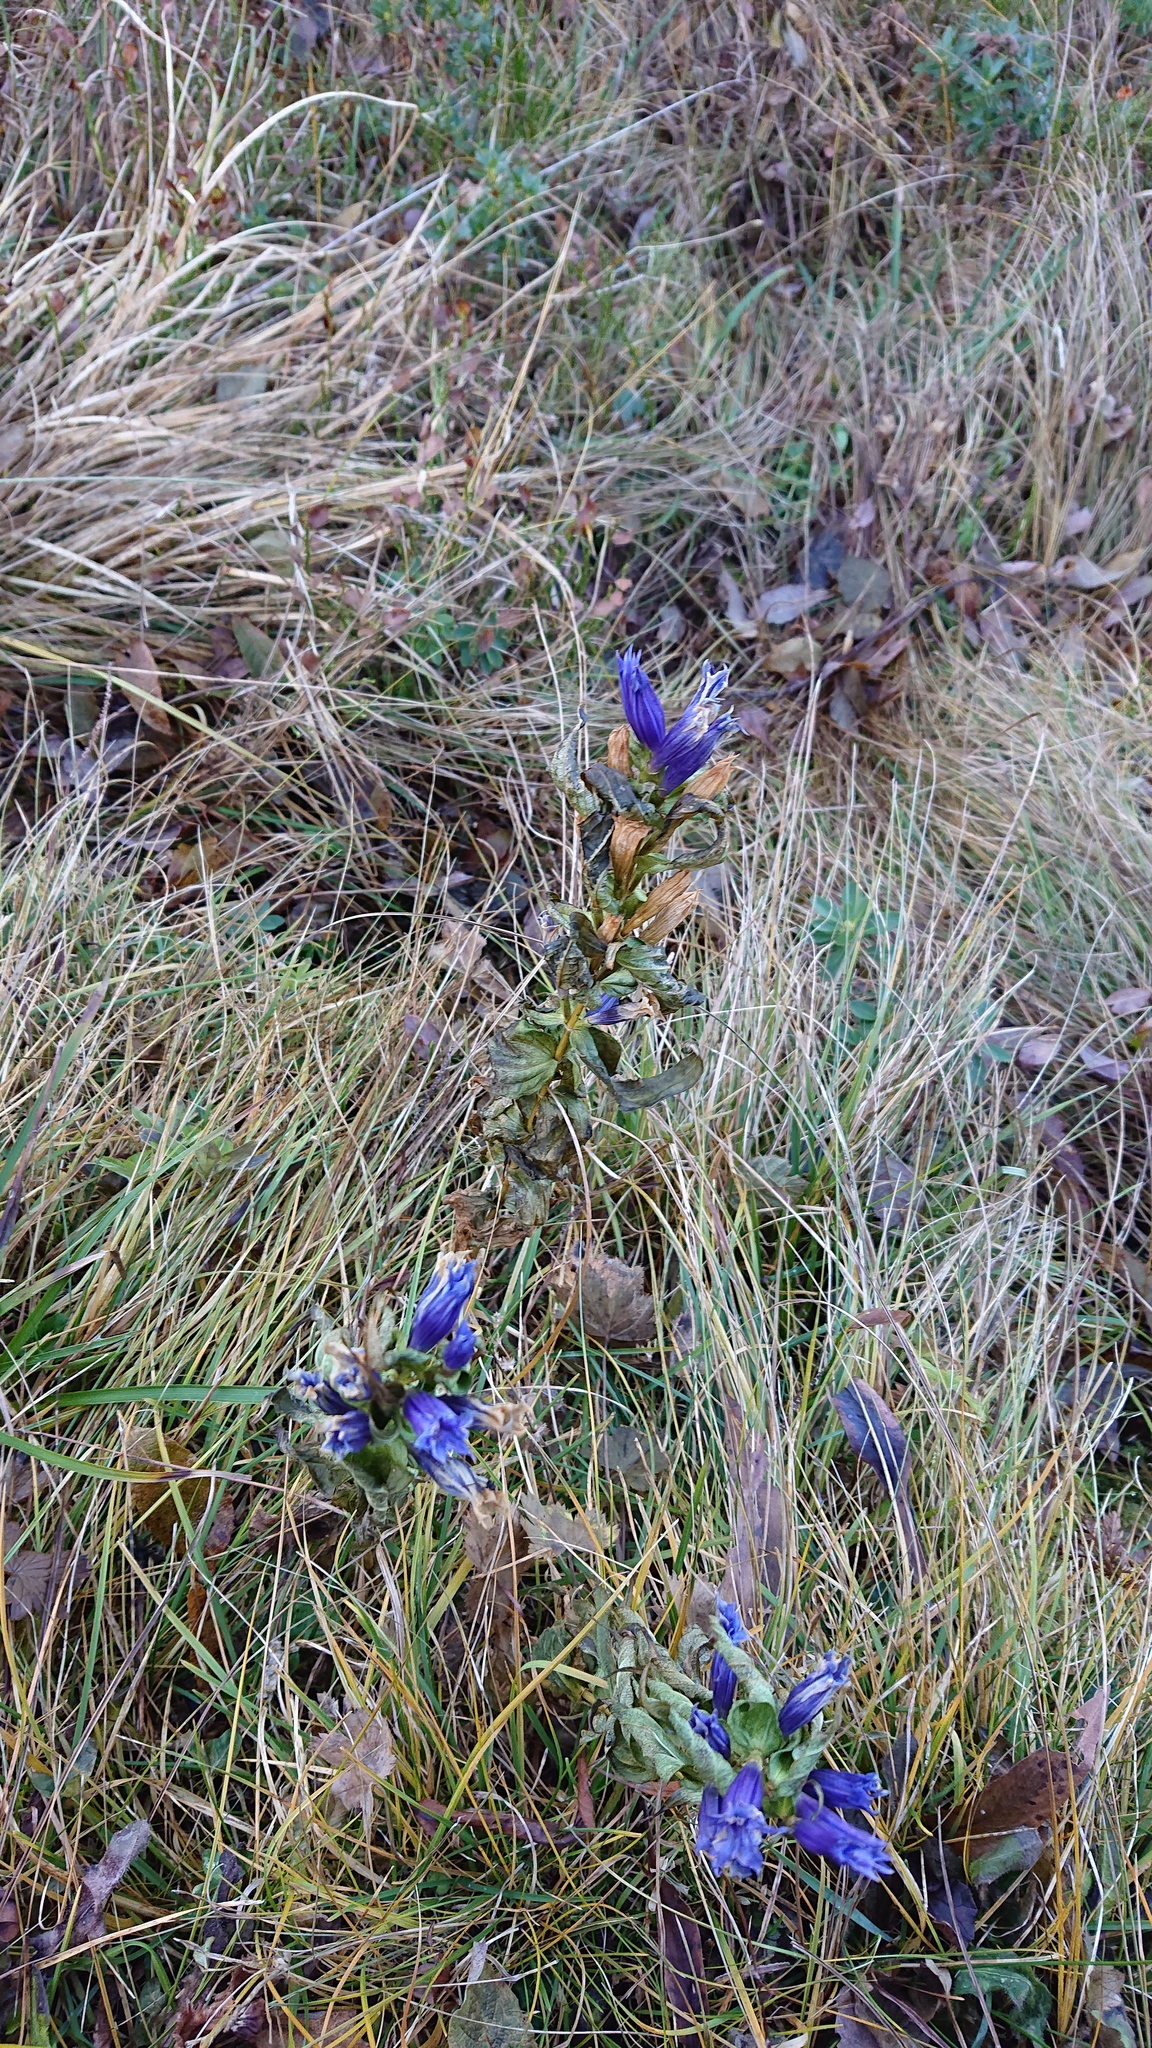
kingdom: Plantae
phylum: Tracheophyta
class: Magnoliopsida
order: Gentianales
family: Gentianaceae
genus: Gentiana
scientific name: Gentiana asclepiadea
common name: Willow gentian
